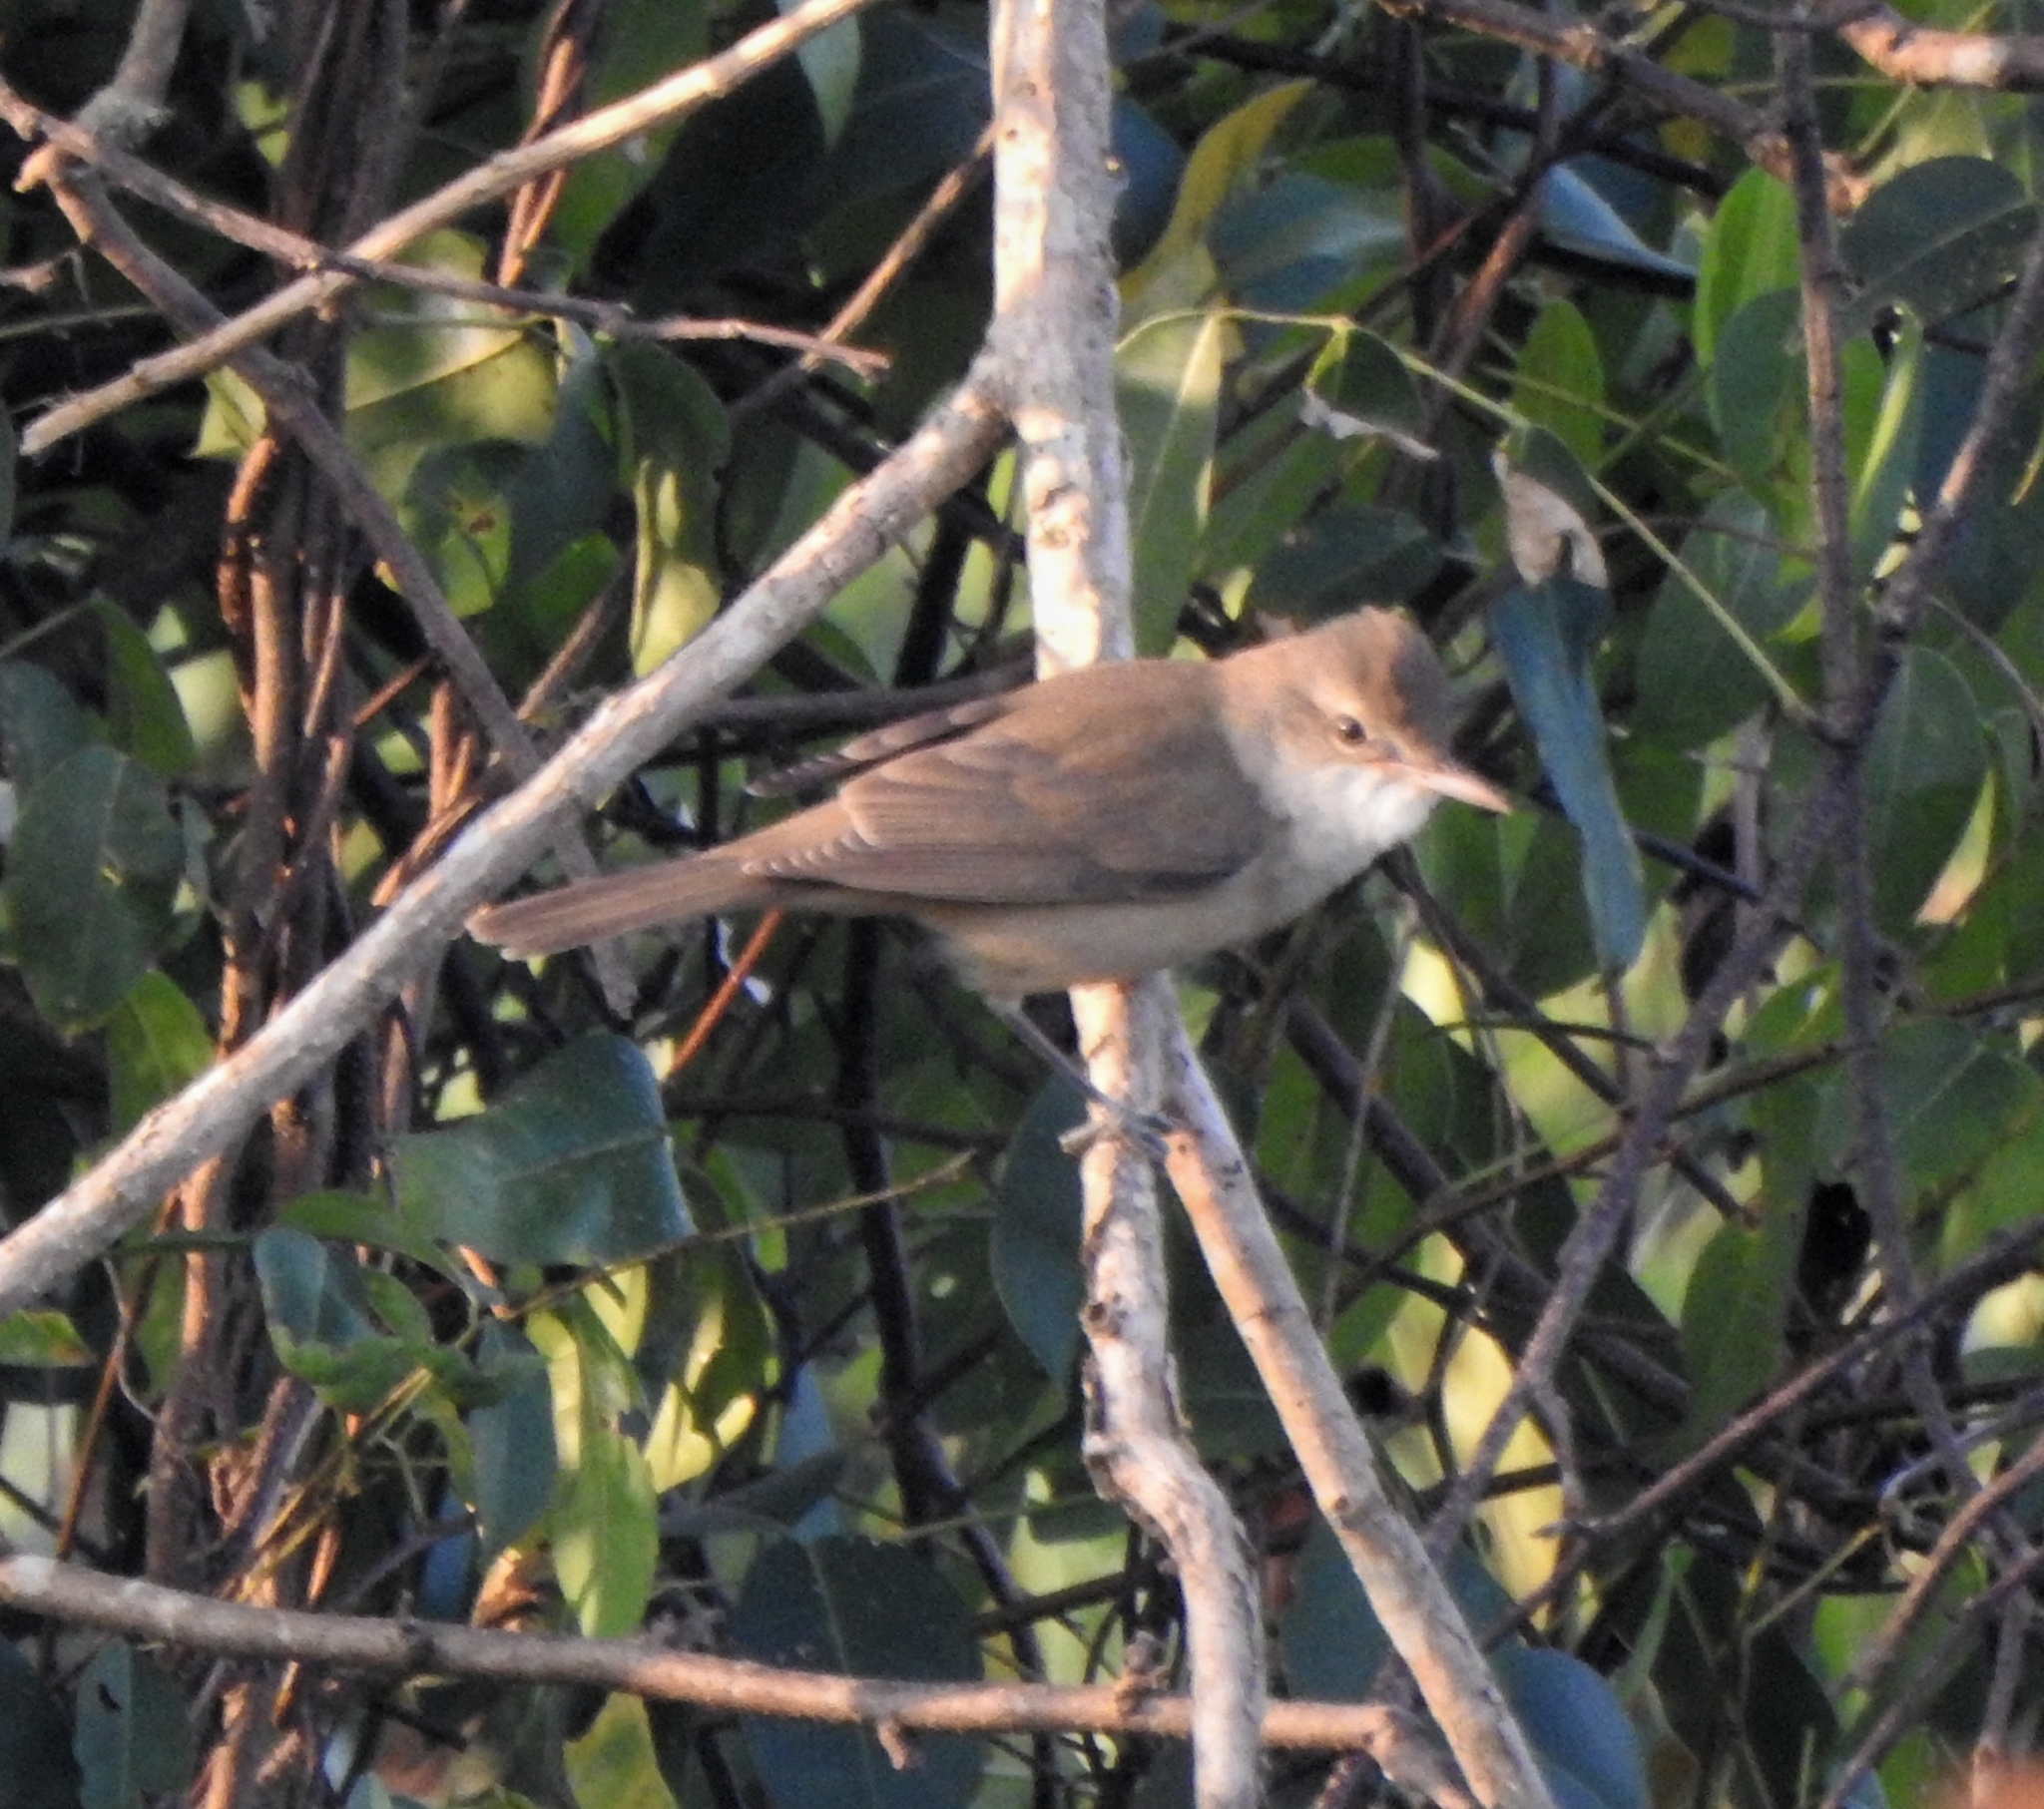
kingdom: Animalia
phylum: Chordata
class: Aves
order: Passeriformes
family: Acrocephalidae
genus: Acrocephalus
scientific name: Acrocephalus stentoreus
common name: Clamorous reed warbler
